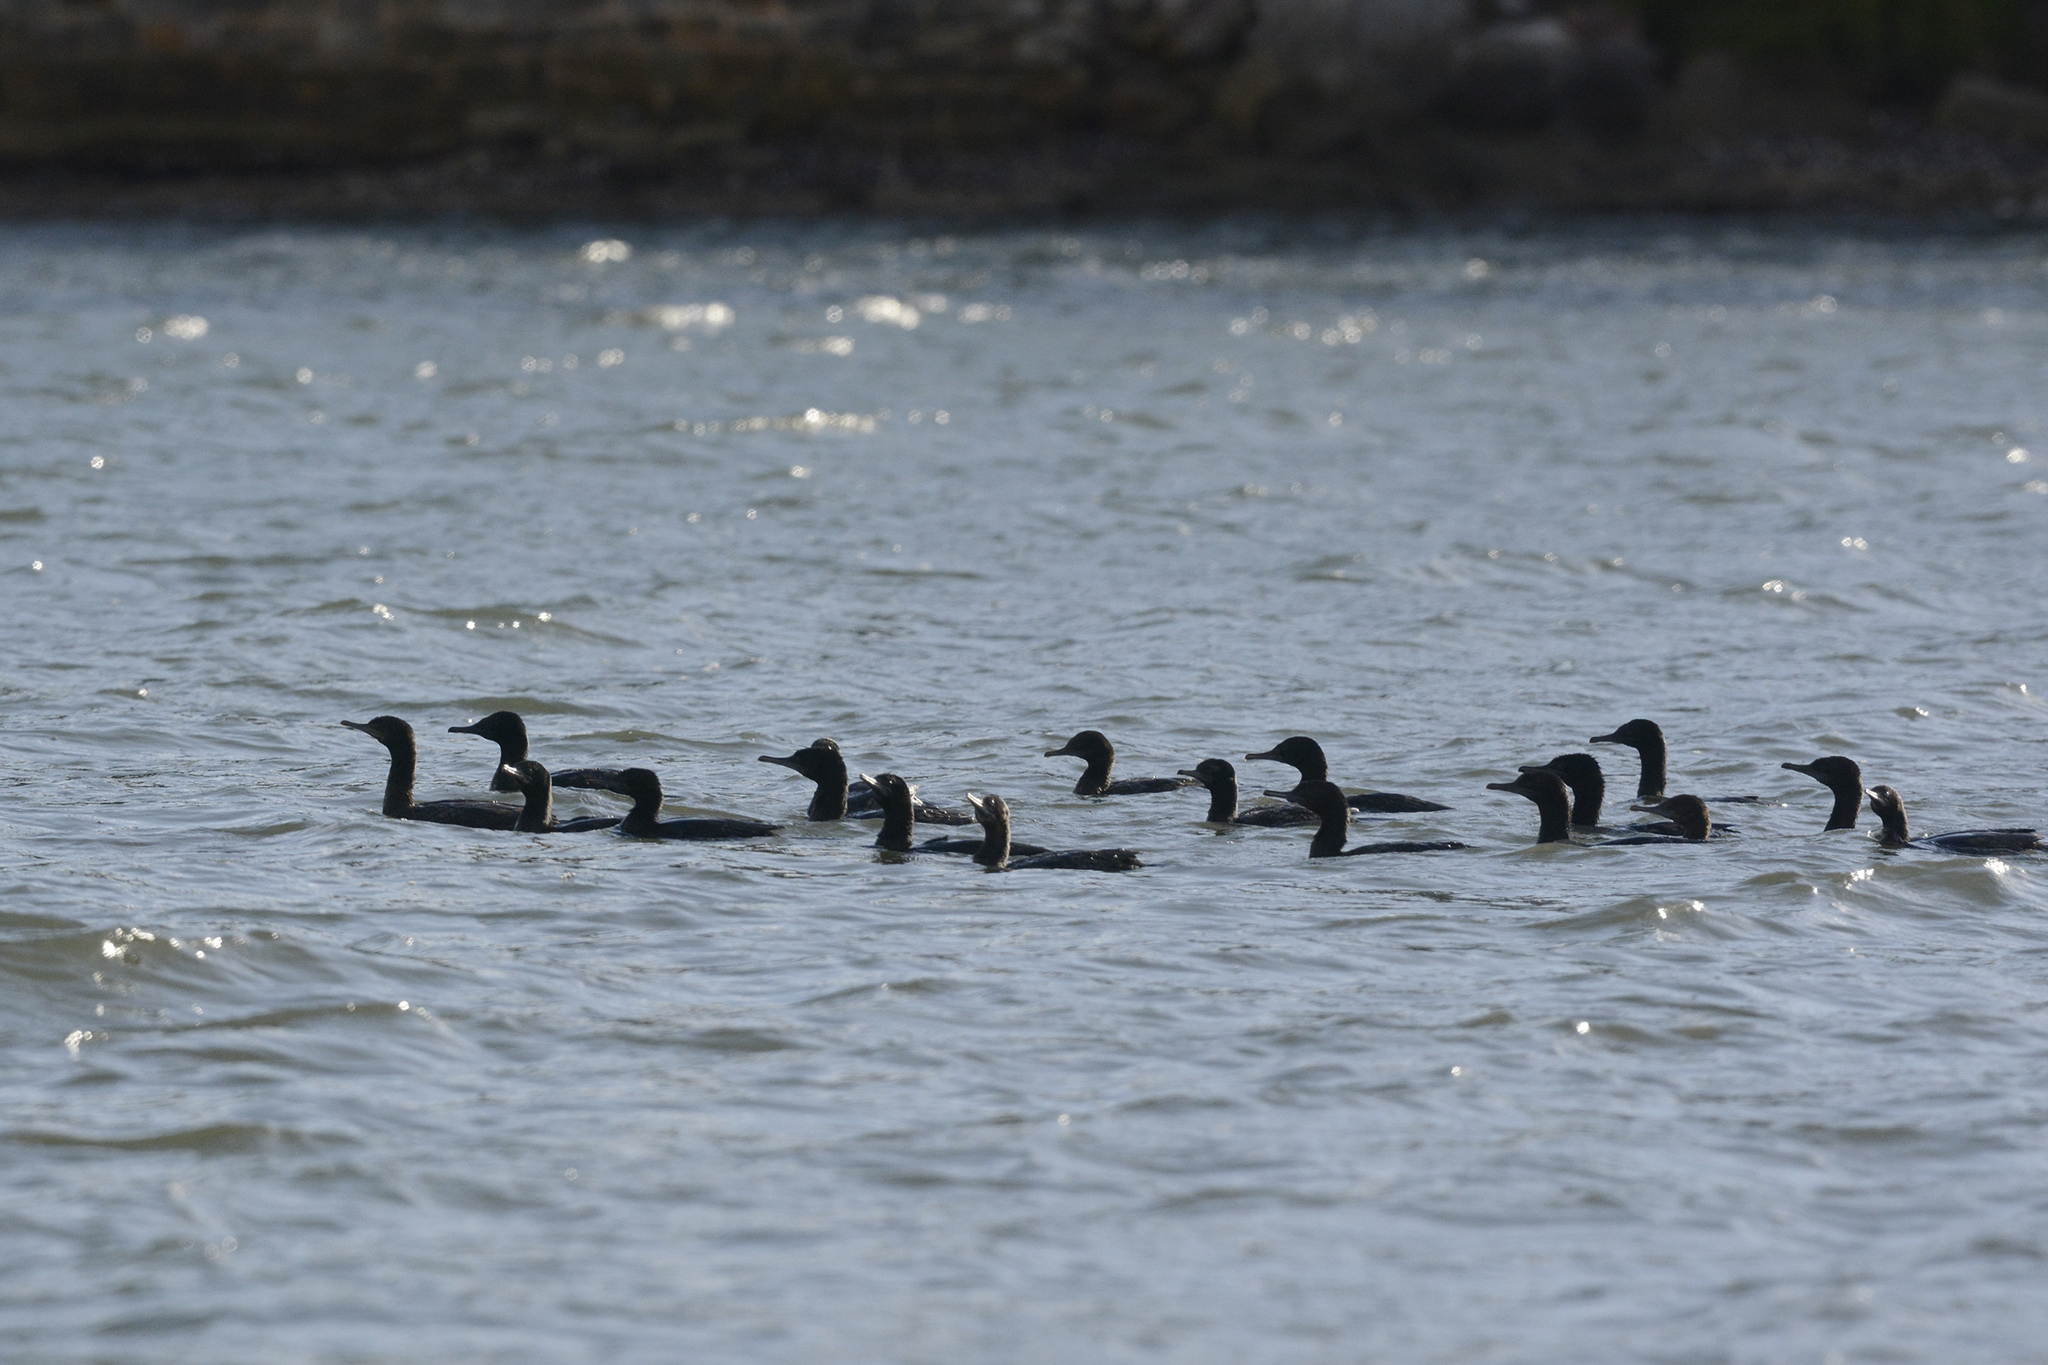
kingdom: Animalia
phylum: Chordata
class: Aves
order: Suliformes
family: Phalacrocoracidae
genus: Phalacrocorax
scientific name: Phalacrocorax sulcirostris
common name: Little black cormorant
